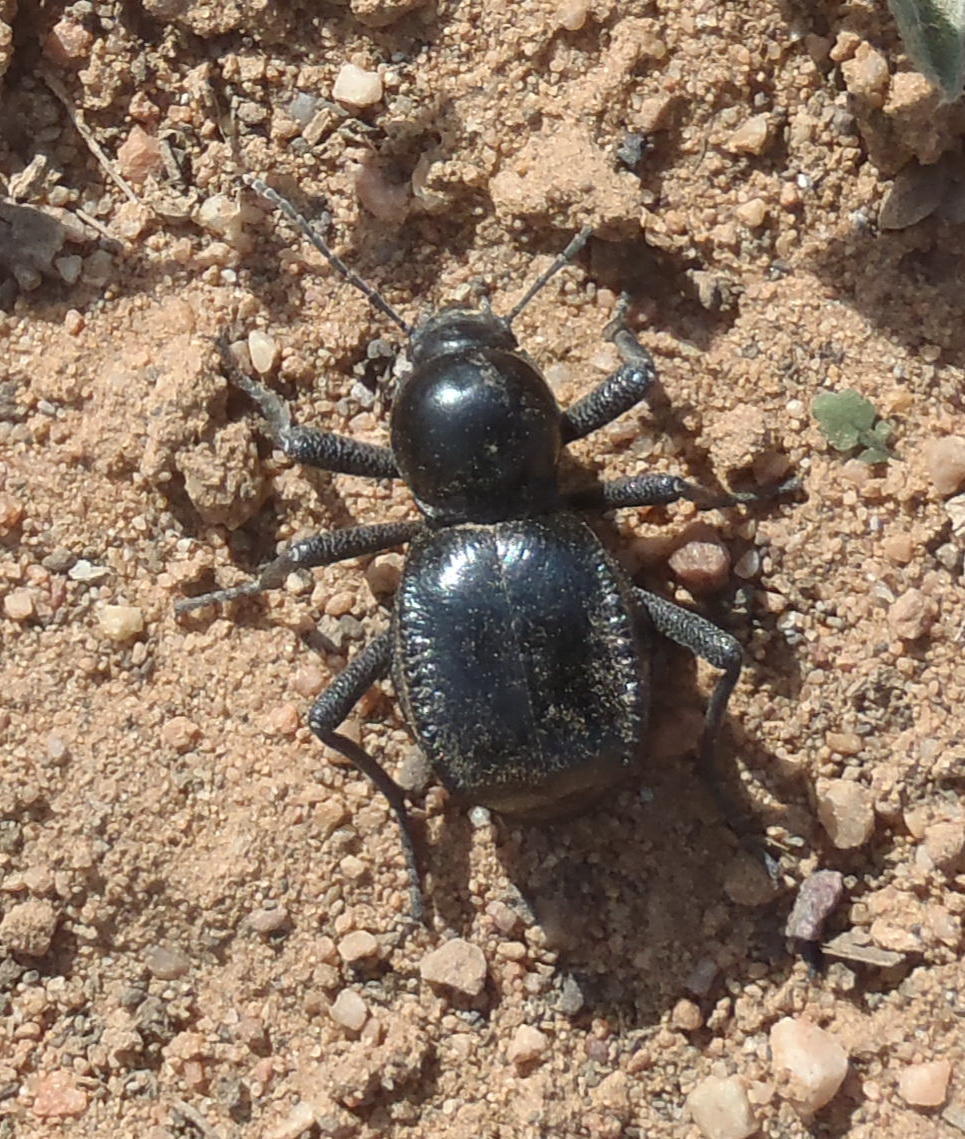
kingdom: Animalia
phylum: Arthropoda
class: Insecta
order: Coleoptera
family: Tenebrionidae
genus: Moluris
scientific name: Moluris gibba
